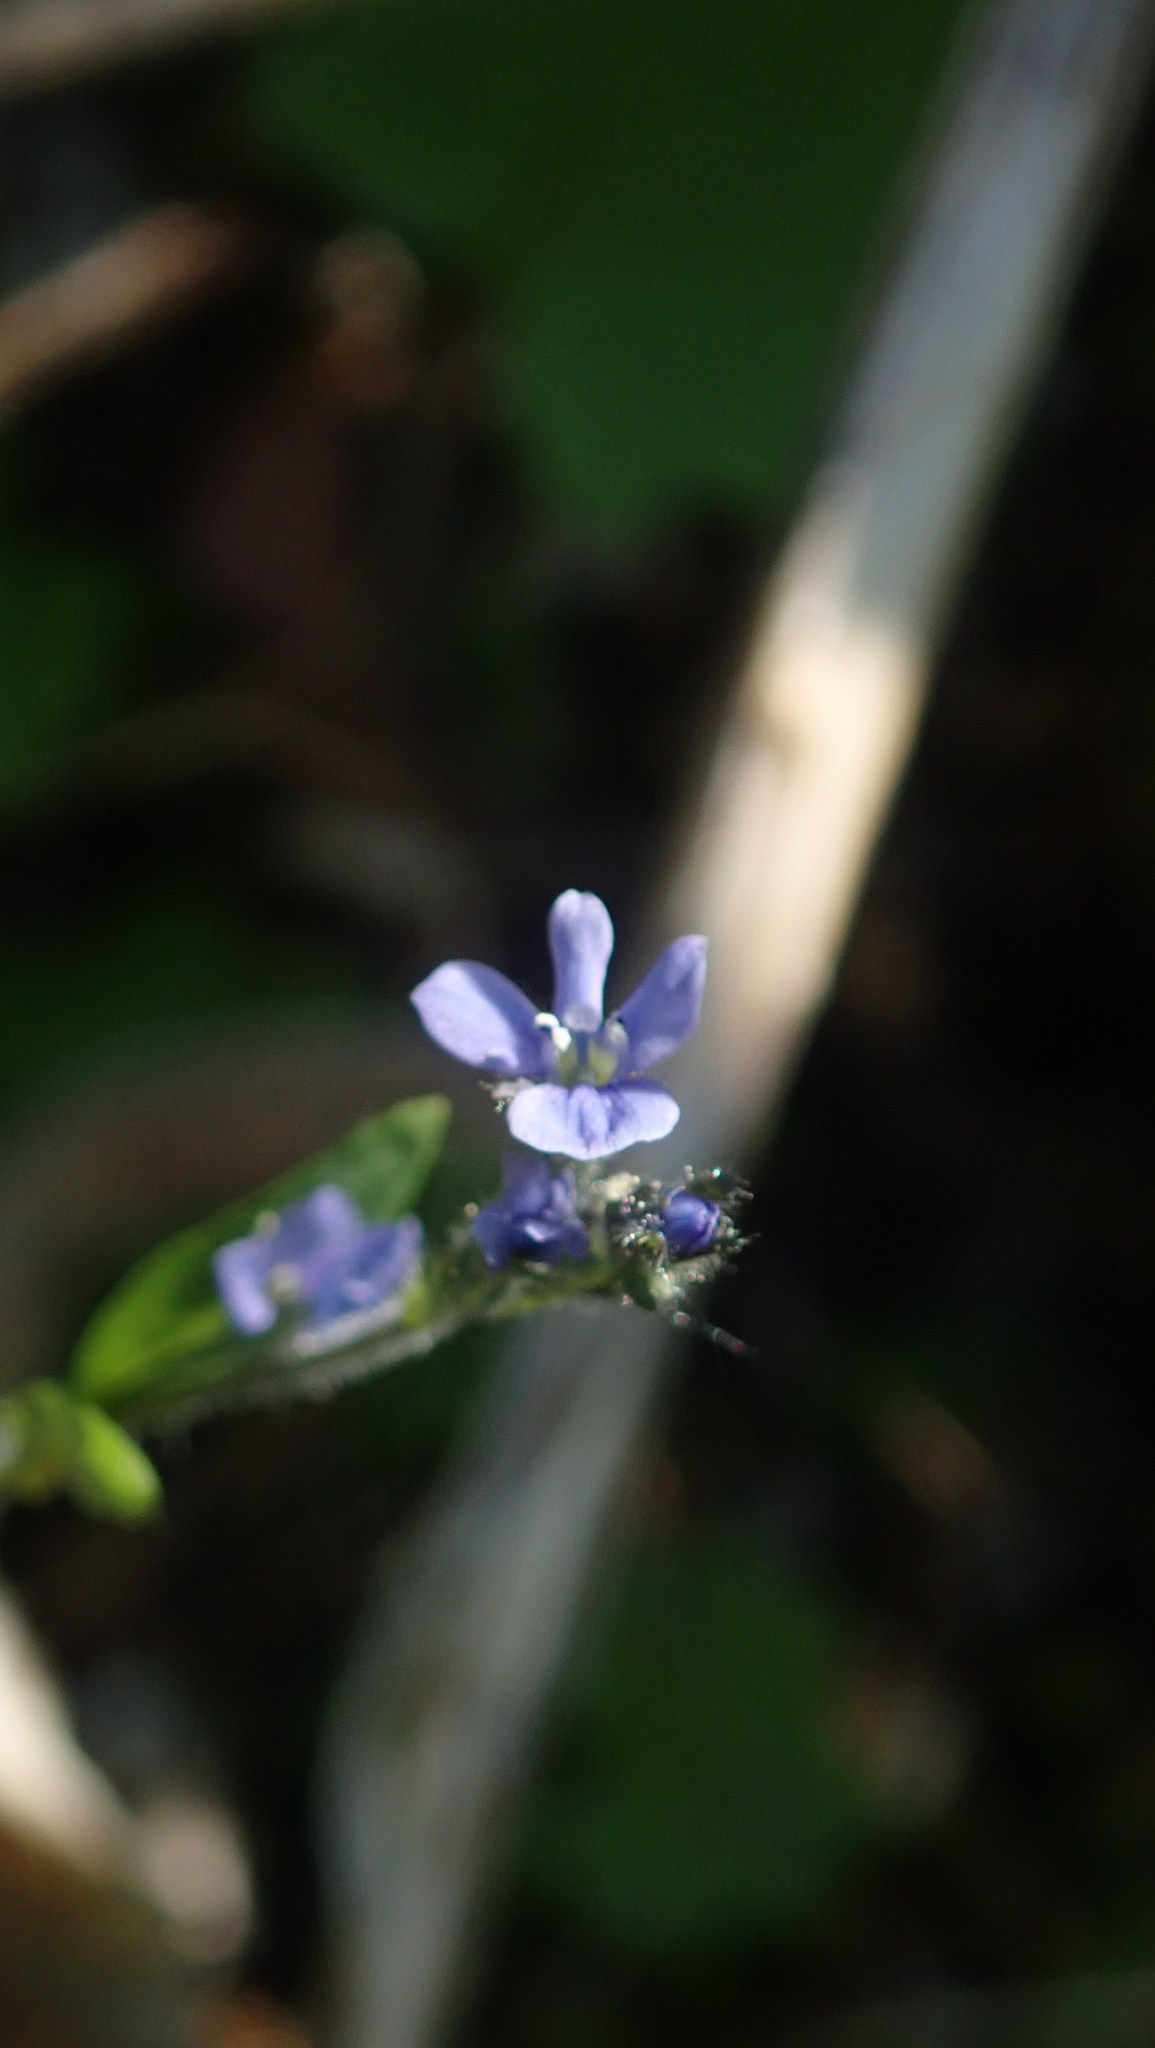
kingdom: Plantae
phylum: Tracheophyta
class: Magnoliopsida
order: Lamiales
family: Plantaginaceae
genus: Veronica
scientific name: Veronica wormskjoldii
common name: American alpine speedwell
